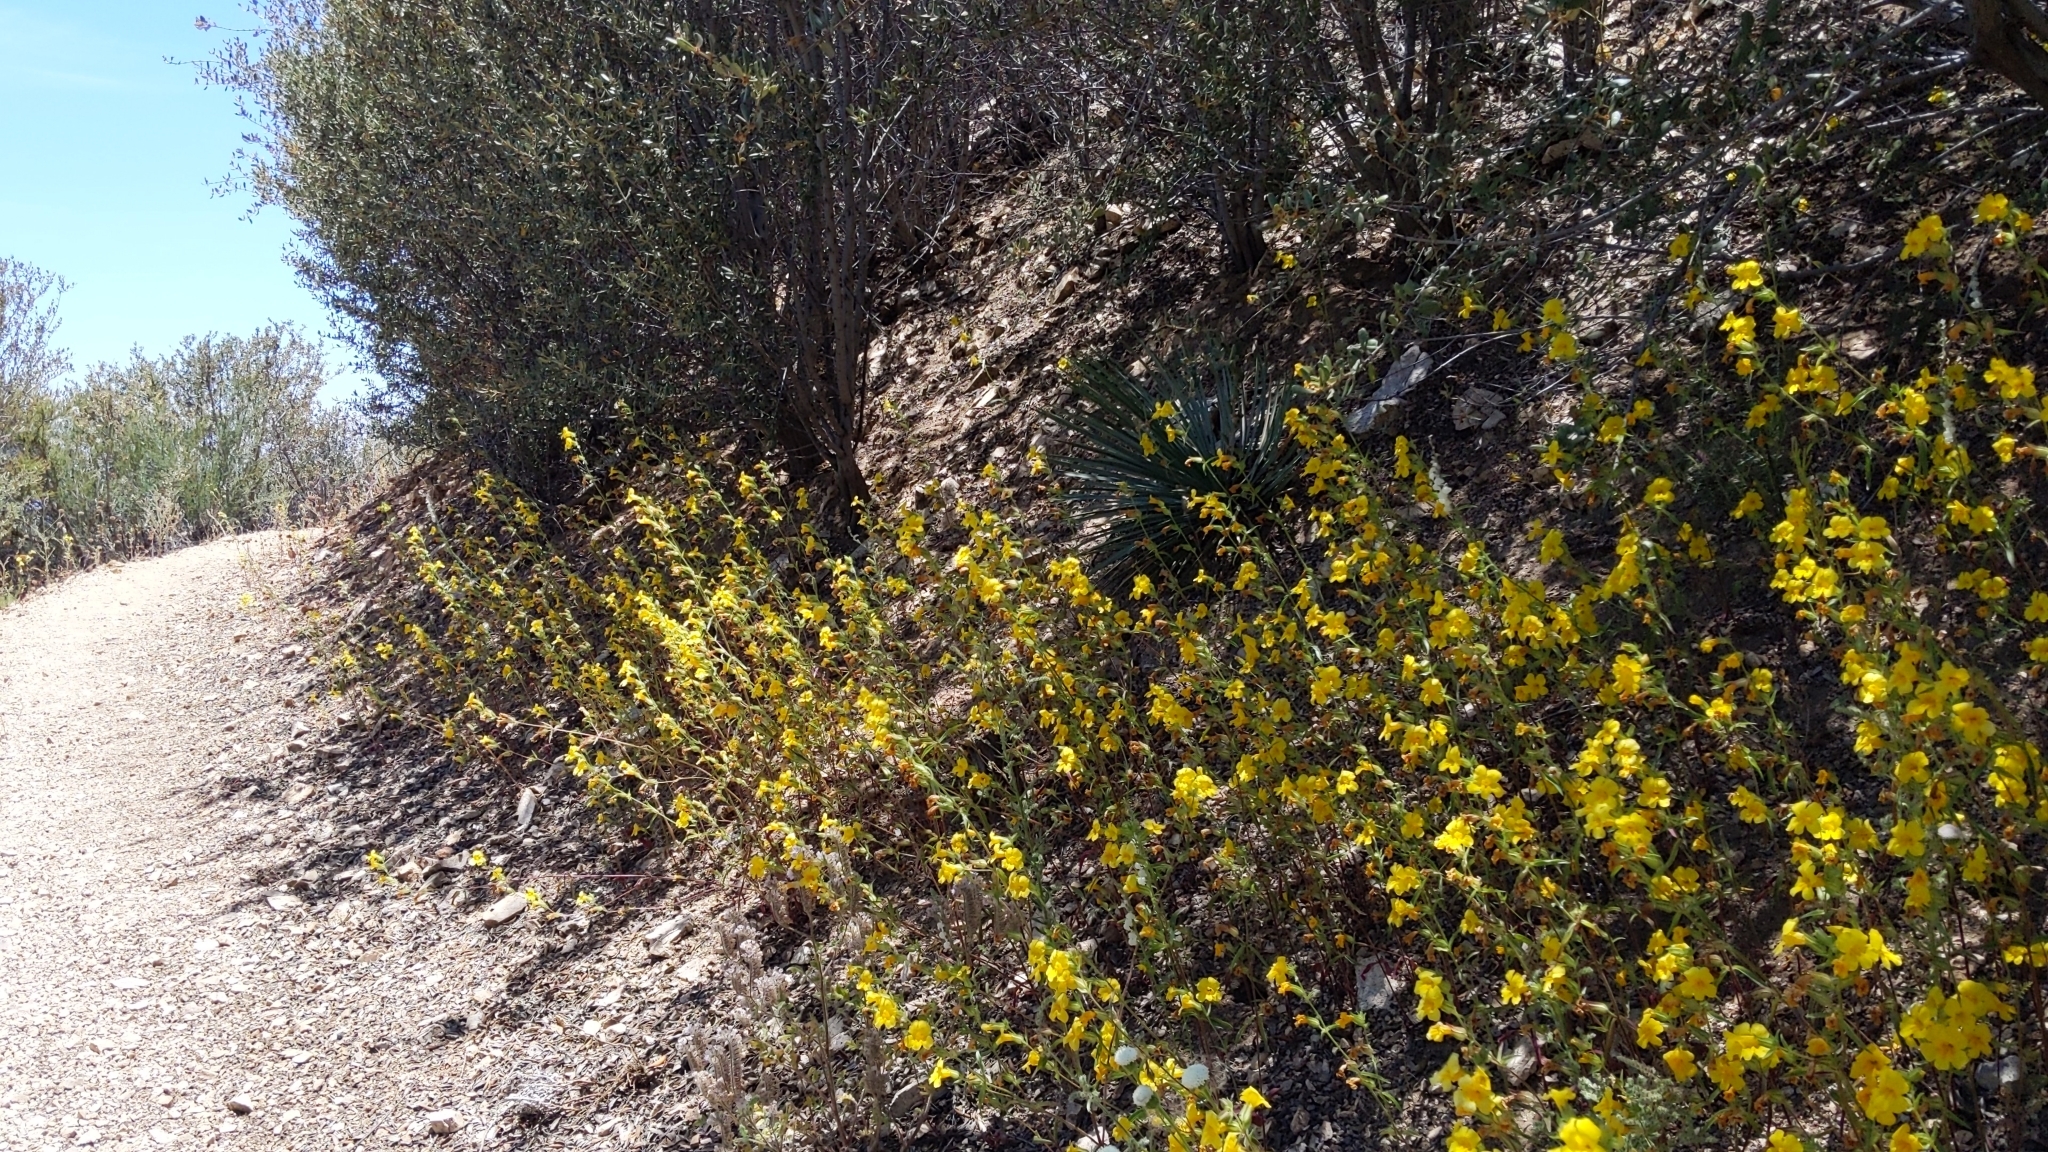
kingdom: Plantae
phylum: Tracheophyta
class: Magnoliopsida
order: Lamiales
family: Phrymaceae
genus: Diplacus
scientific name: Diplacus brevipes
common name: Wide-throat yellow monkey-flower
